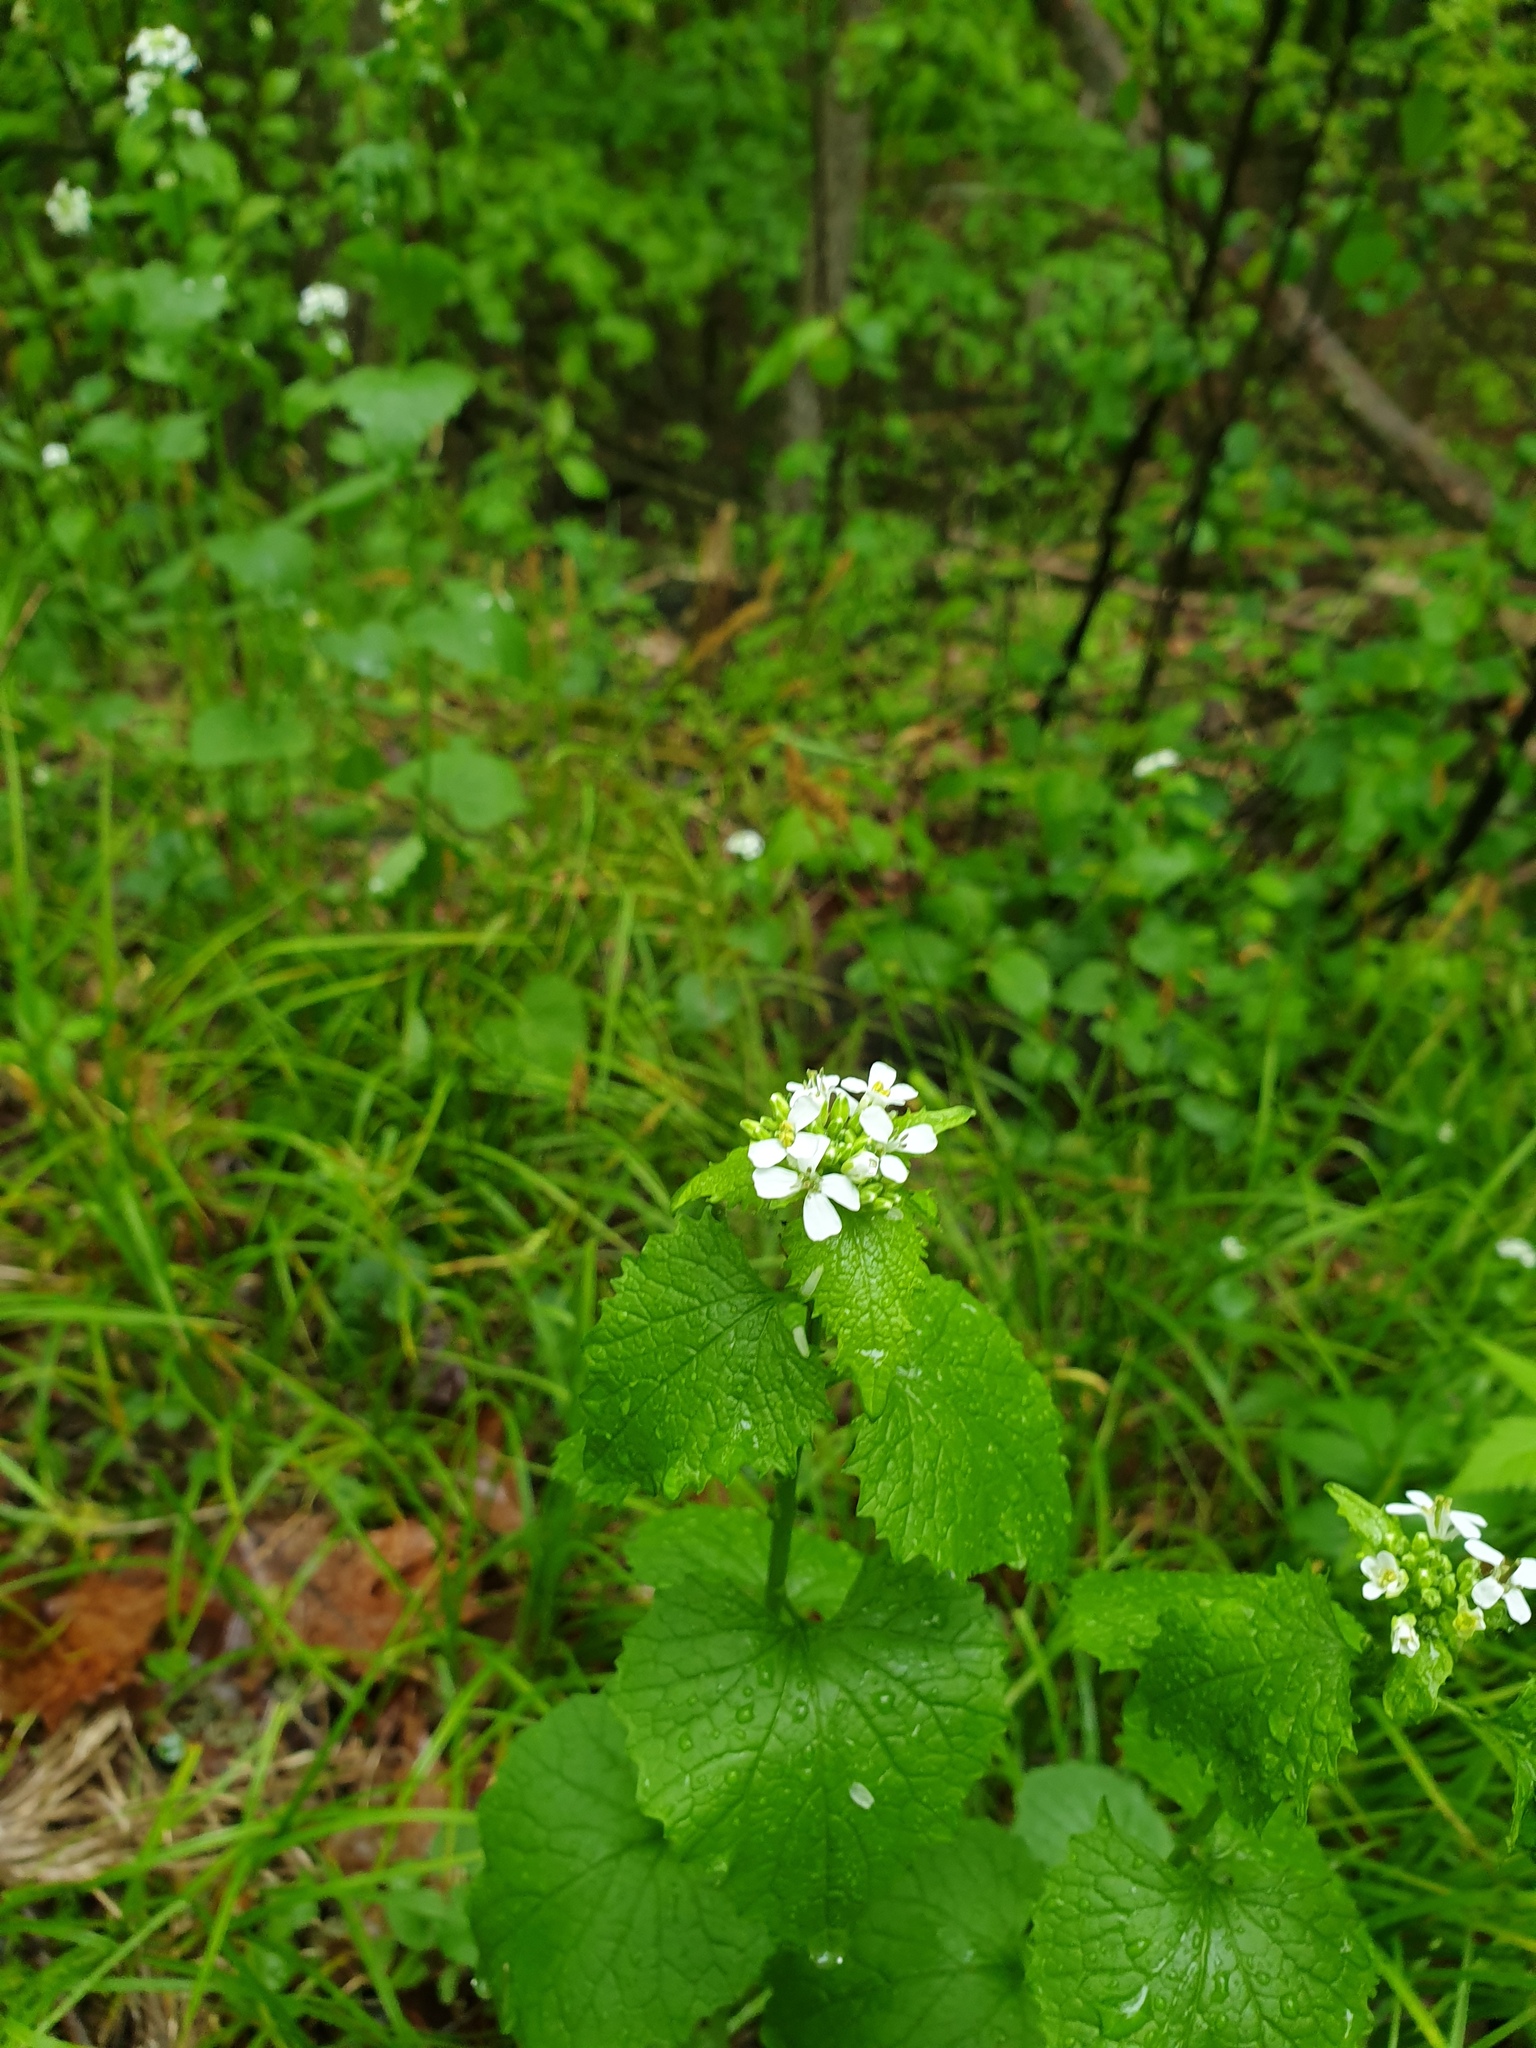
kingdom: Plantae
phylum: Tracheophyta
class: Magnoliopsida
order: Brassicales
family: Brassicaceae
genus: Alliaria
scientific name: Alliaria petiolata
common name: Garlic mustard
